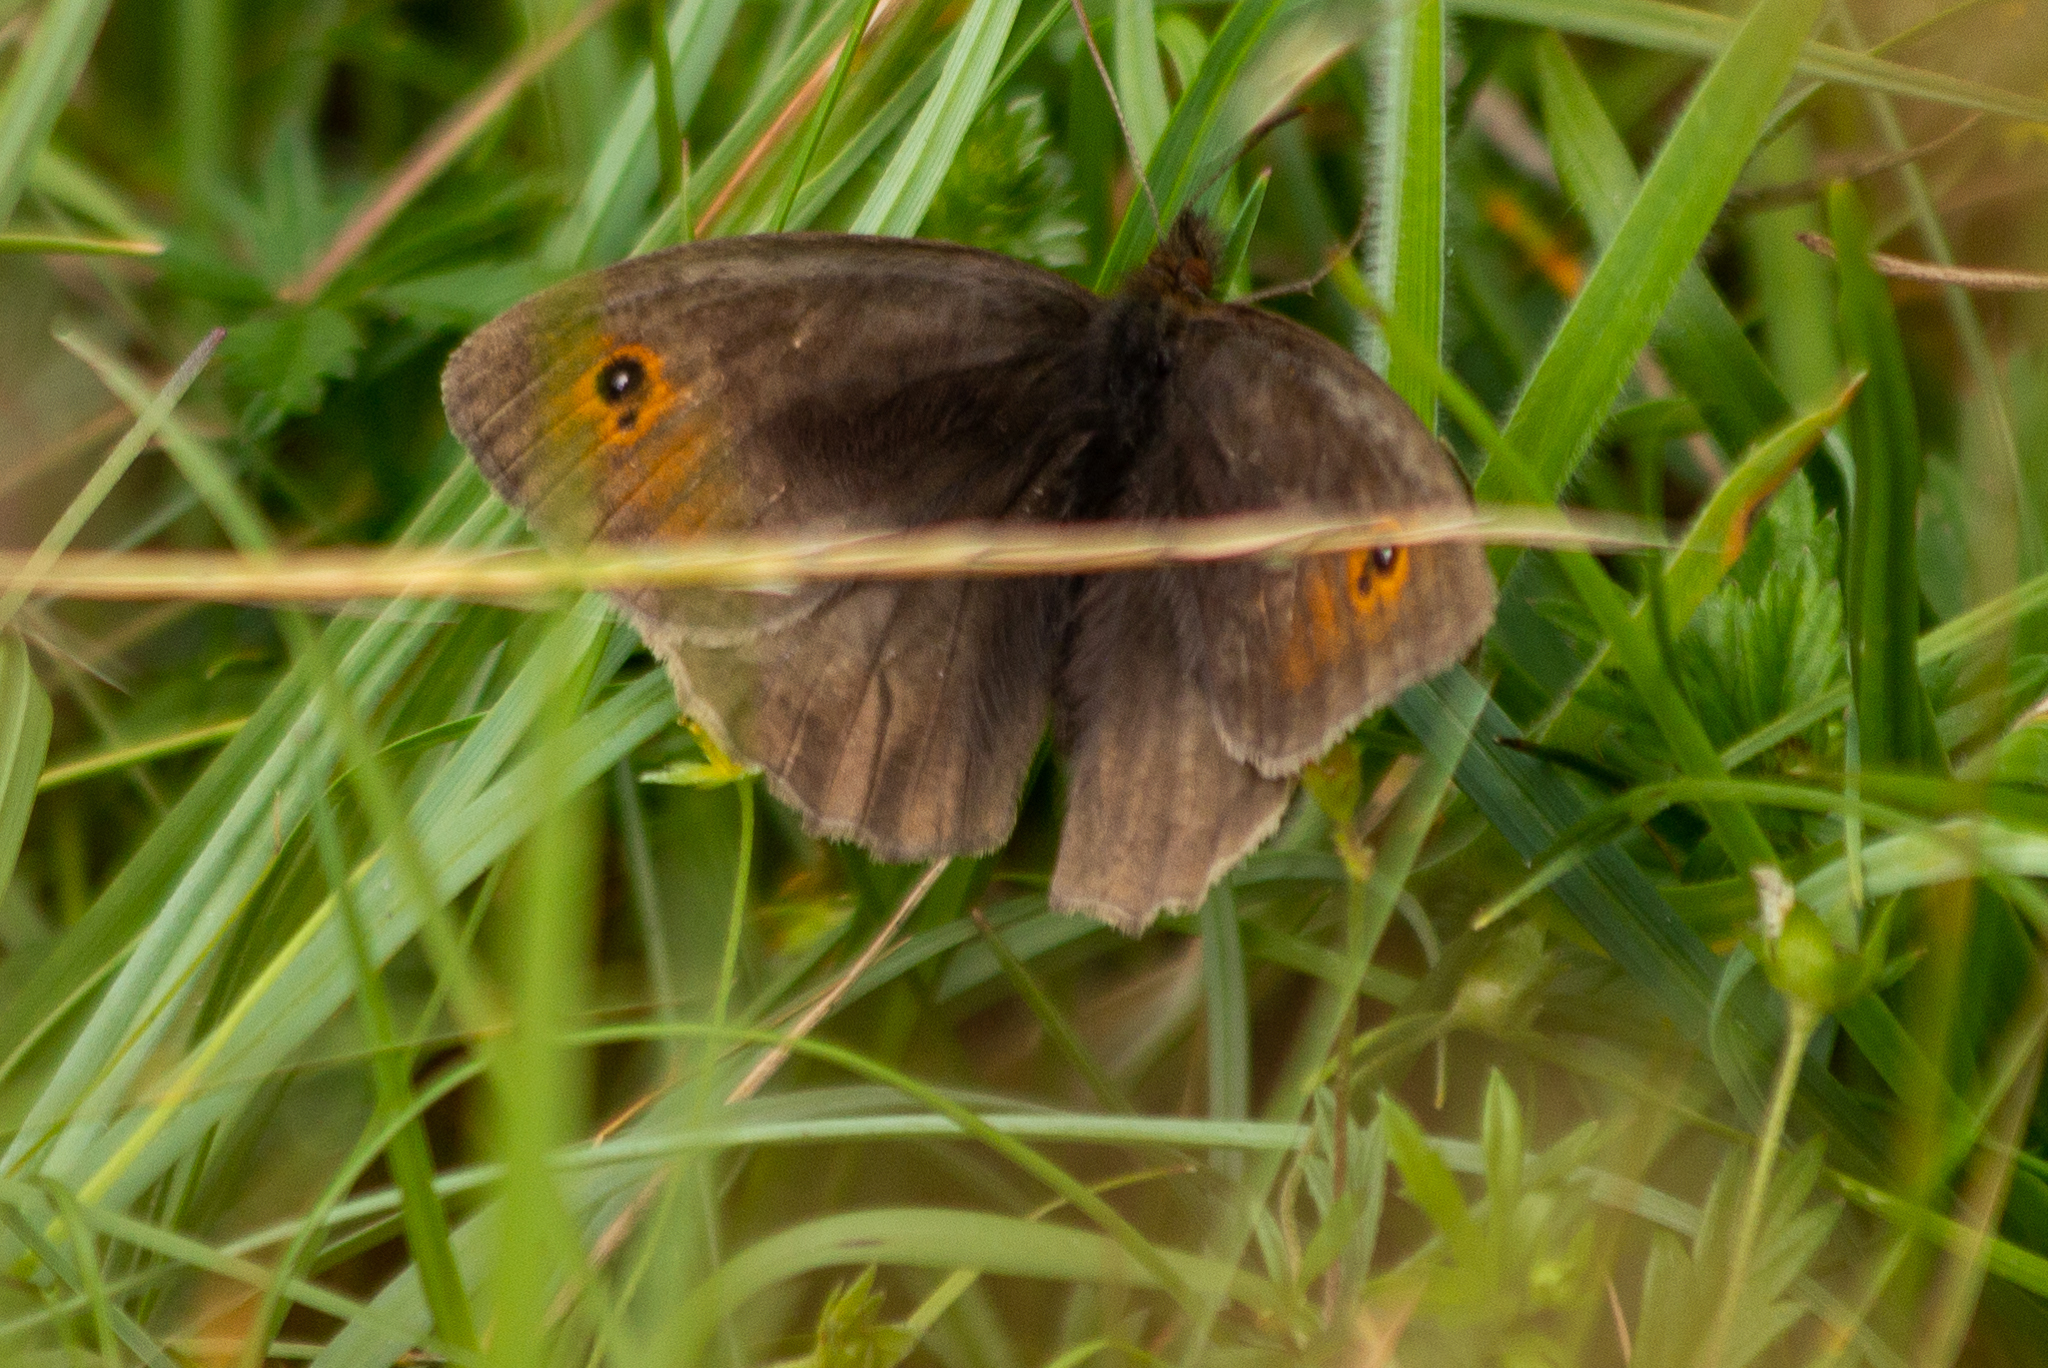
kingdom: Animalia
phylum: Arthropoda
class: Insecta
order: Lepidoptera
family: Nymphalidae
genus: Maniola
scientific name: Maniola jurtina
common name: Meadow brown
